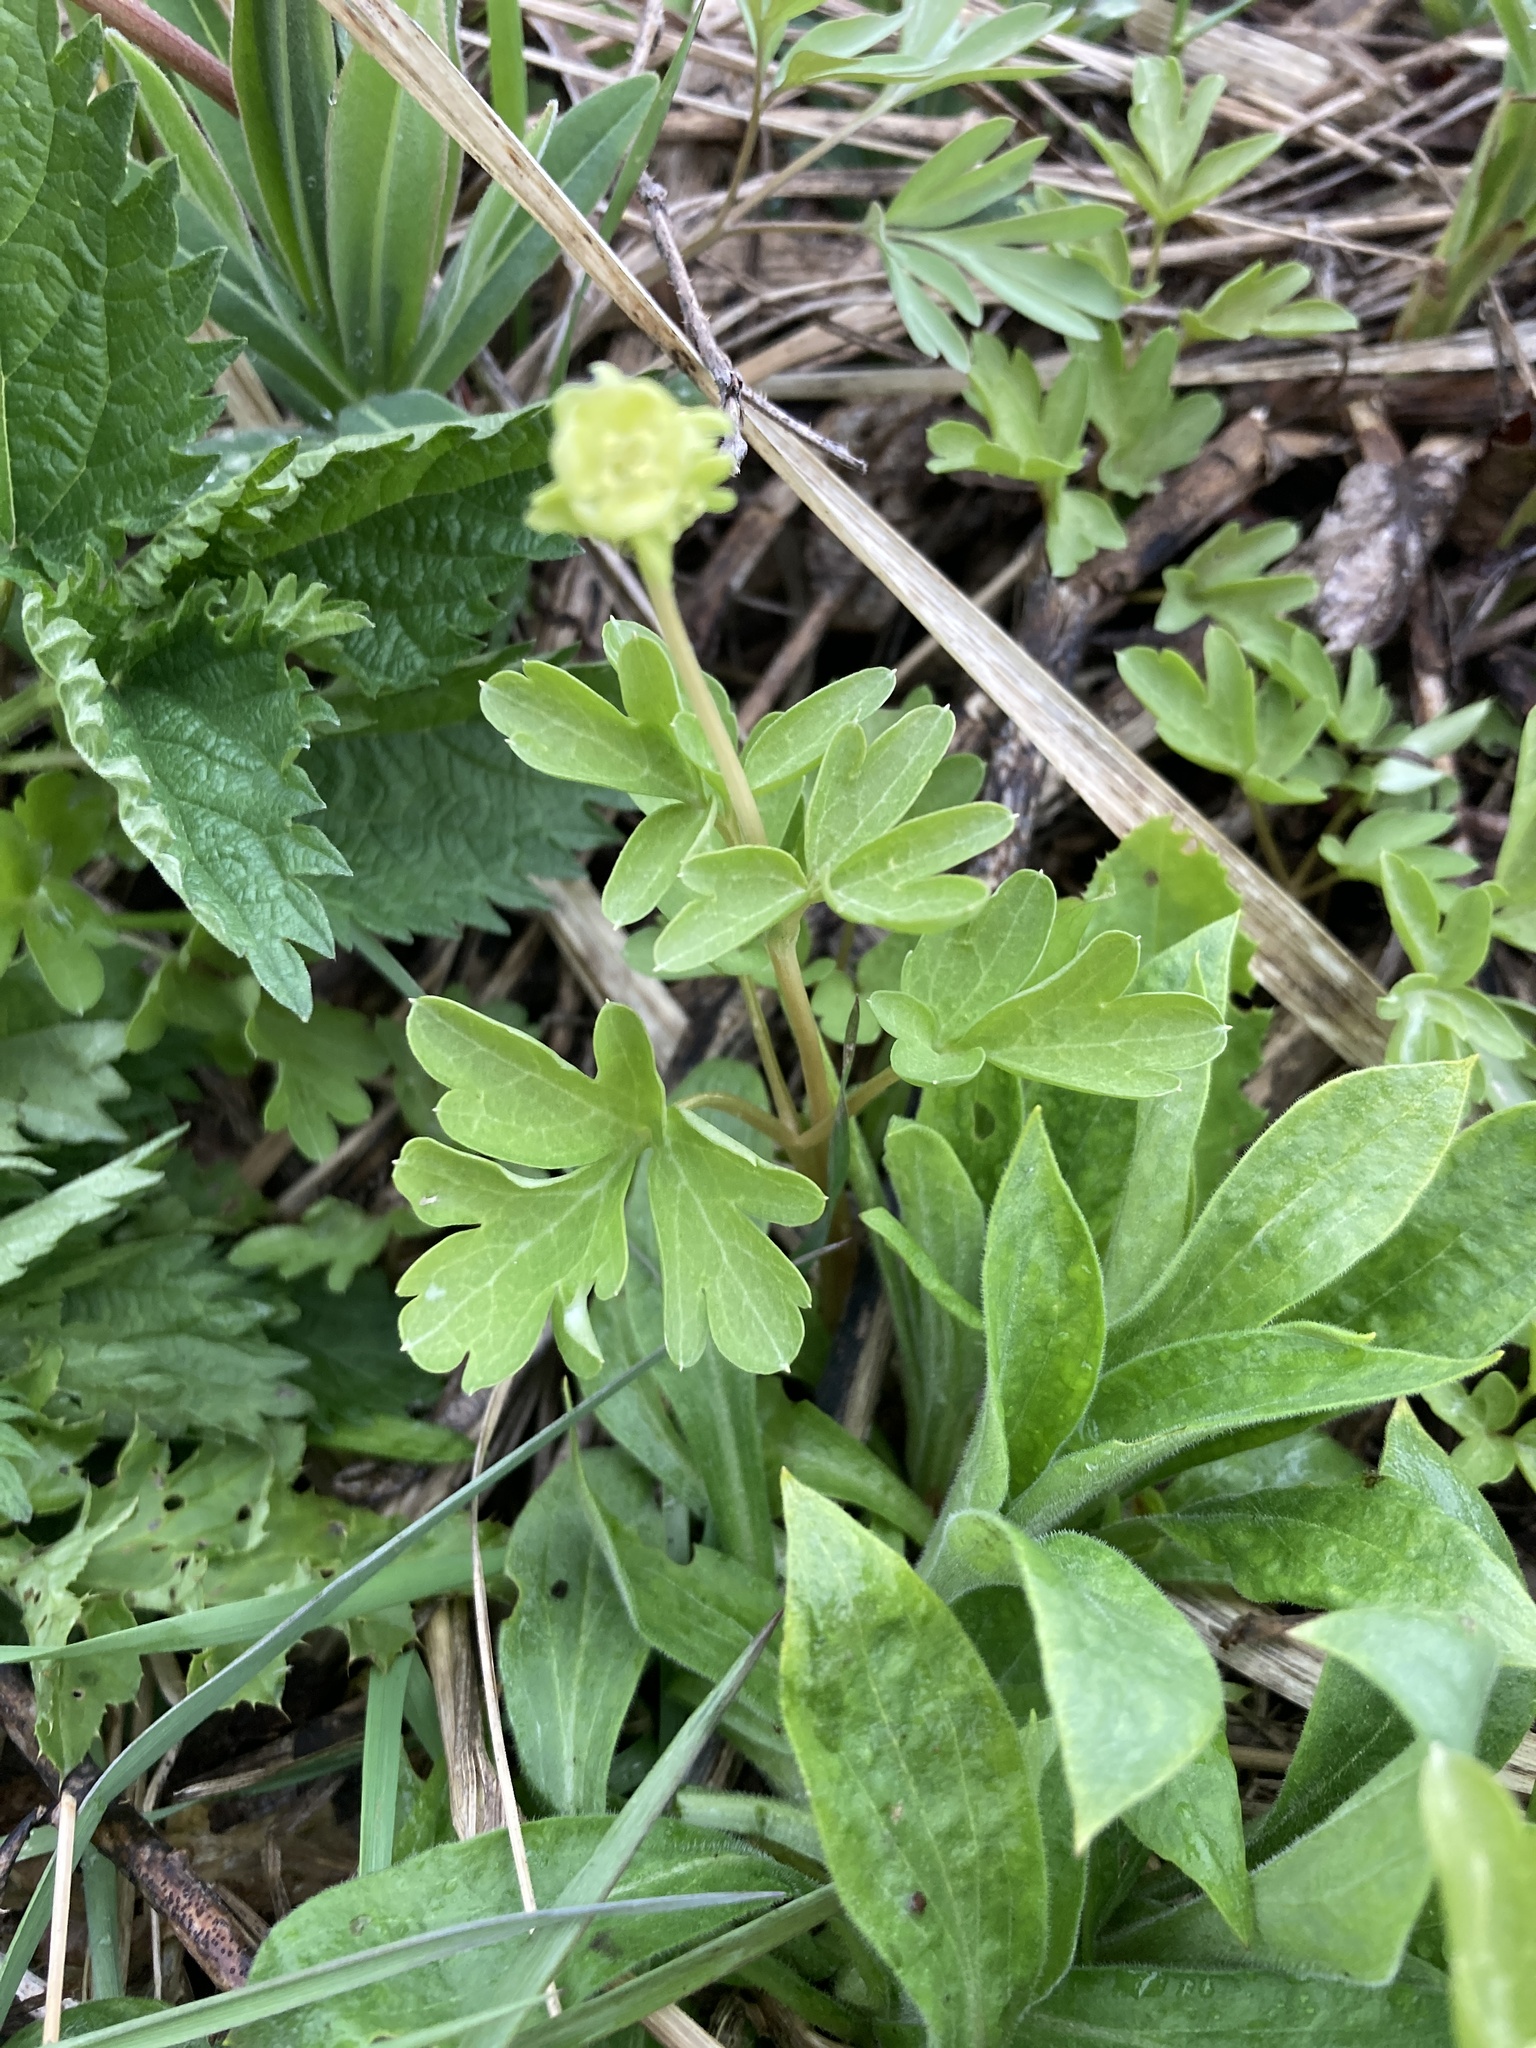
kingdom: Plantae
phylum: Tracheophyta
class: Magnoliopsida
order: Dipsacales
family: Viburnaceae
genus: Adoxa
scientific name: Adoxa moschatellina
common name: Moschatel
